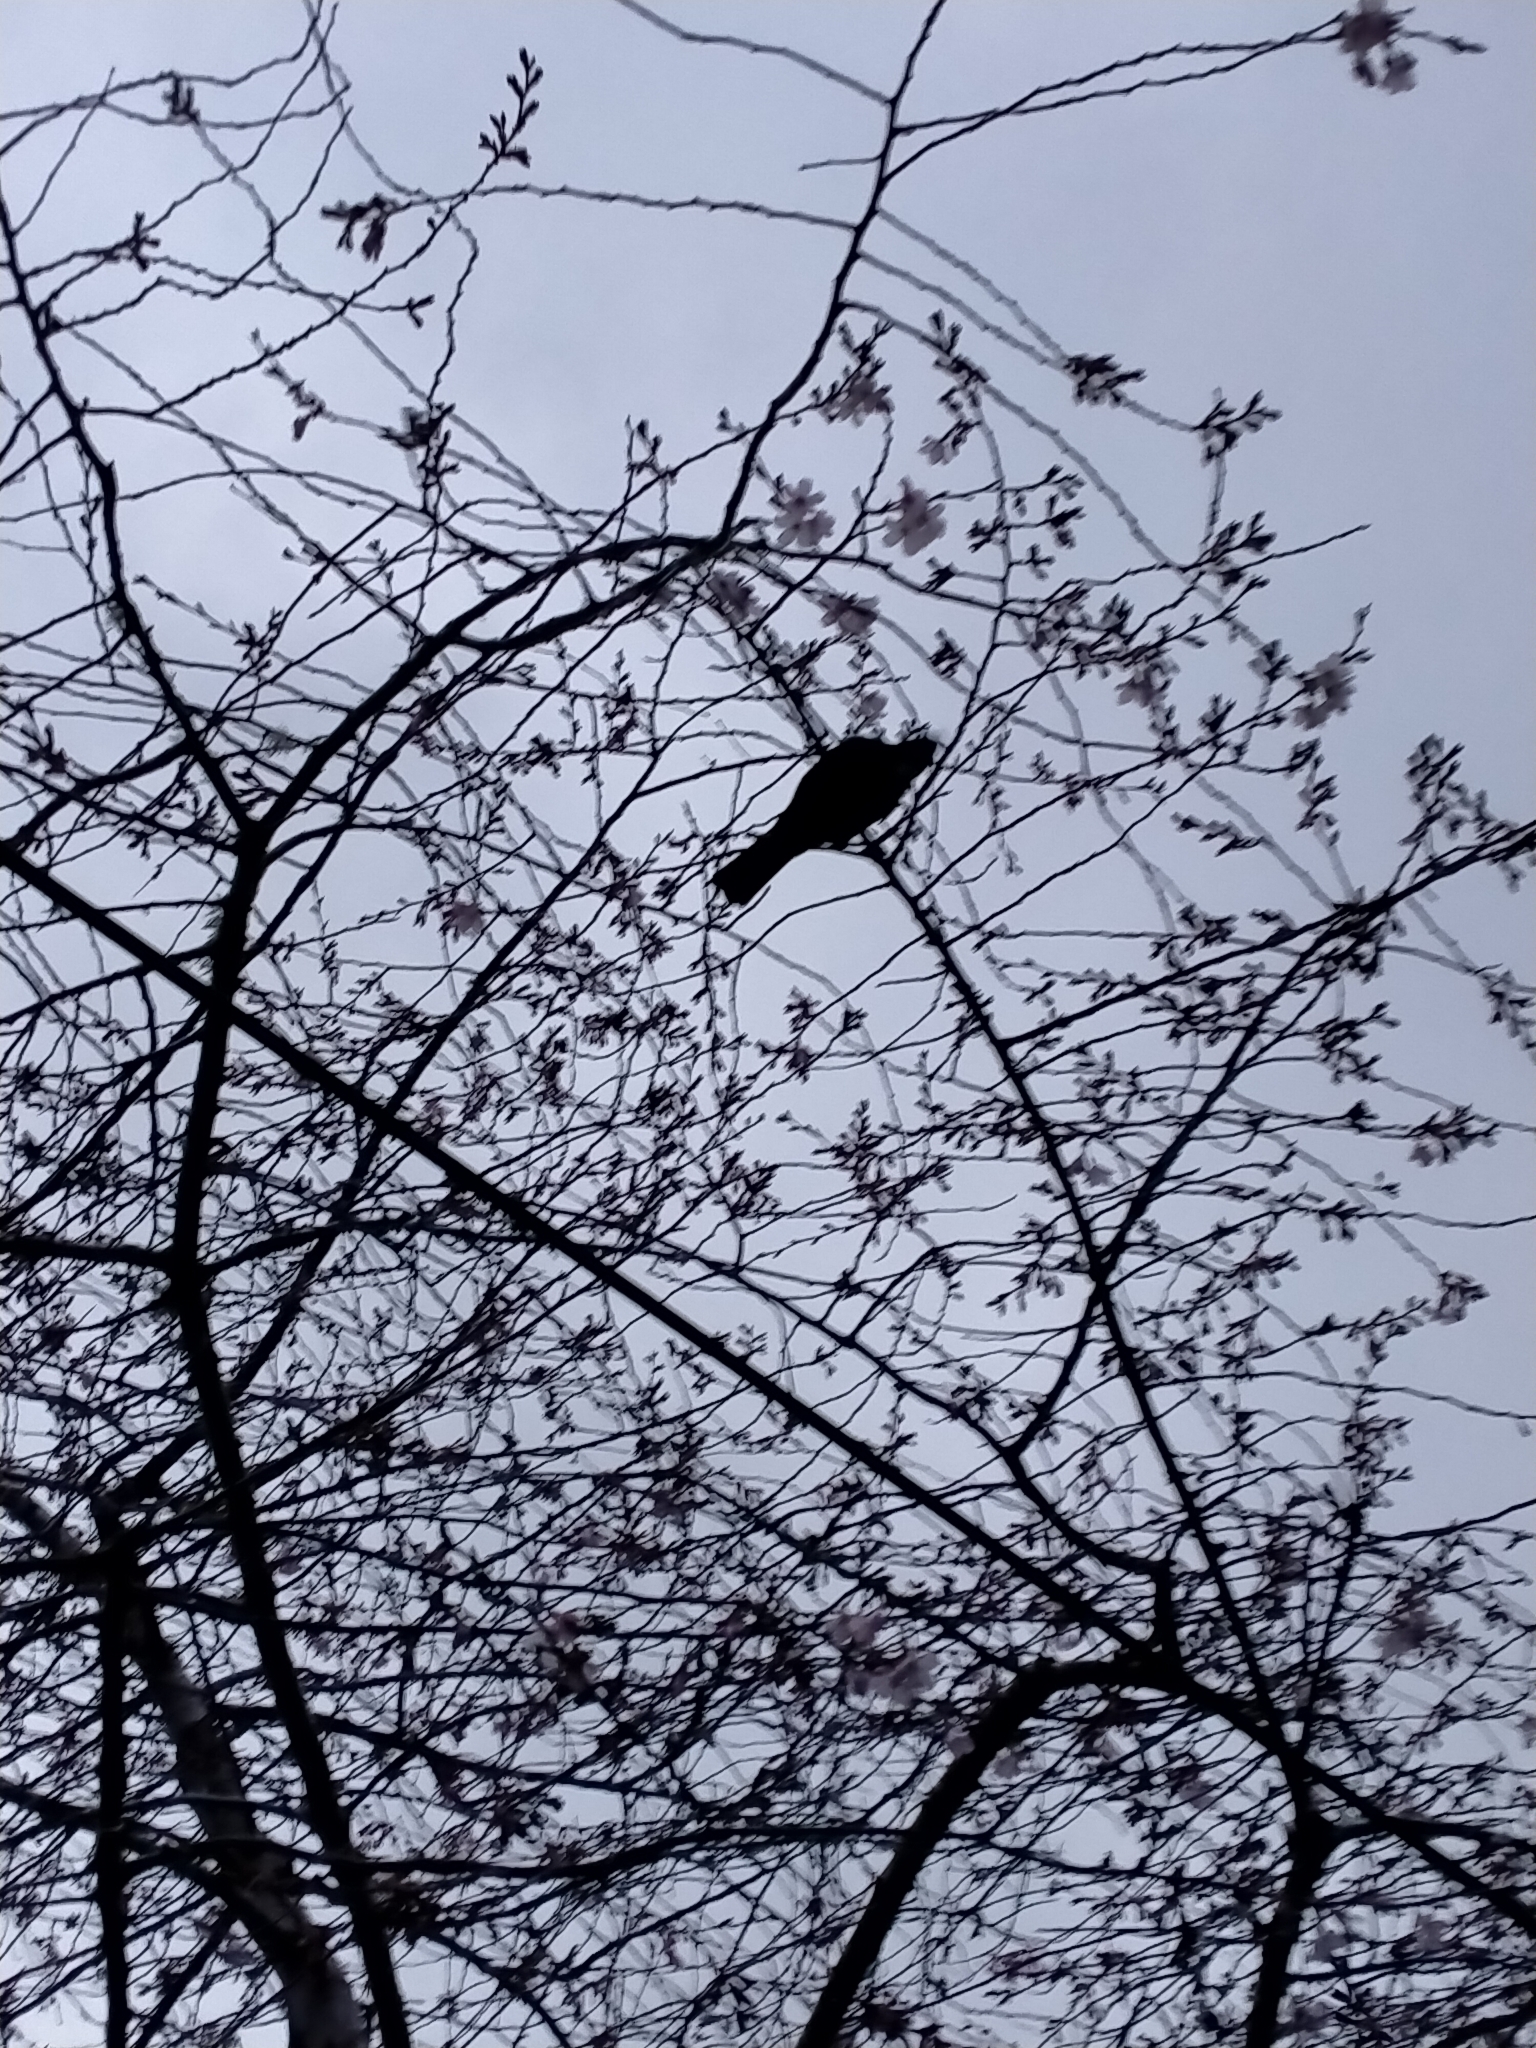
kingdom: Animalia
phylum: Chordata
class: Aves
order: Passeriformes
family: Meliphagidae
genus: Prosthemadera
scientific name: Prosthemadera novaeseelandiae
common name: Tui
